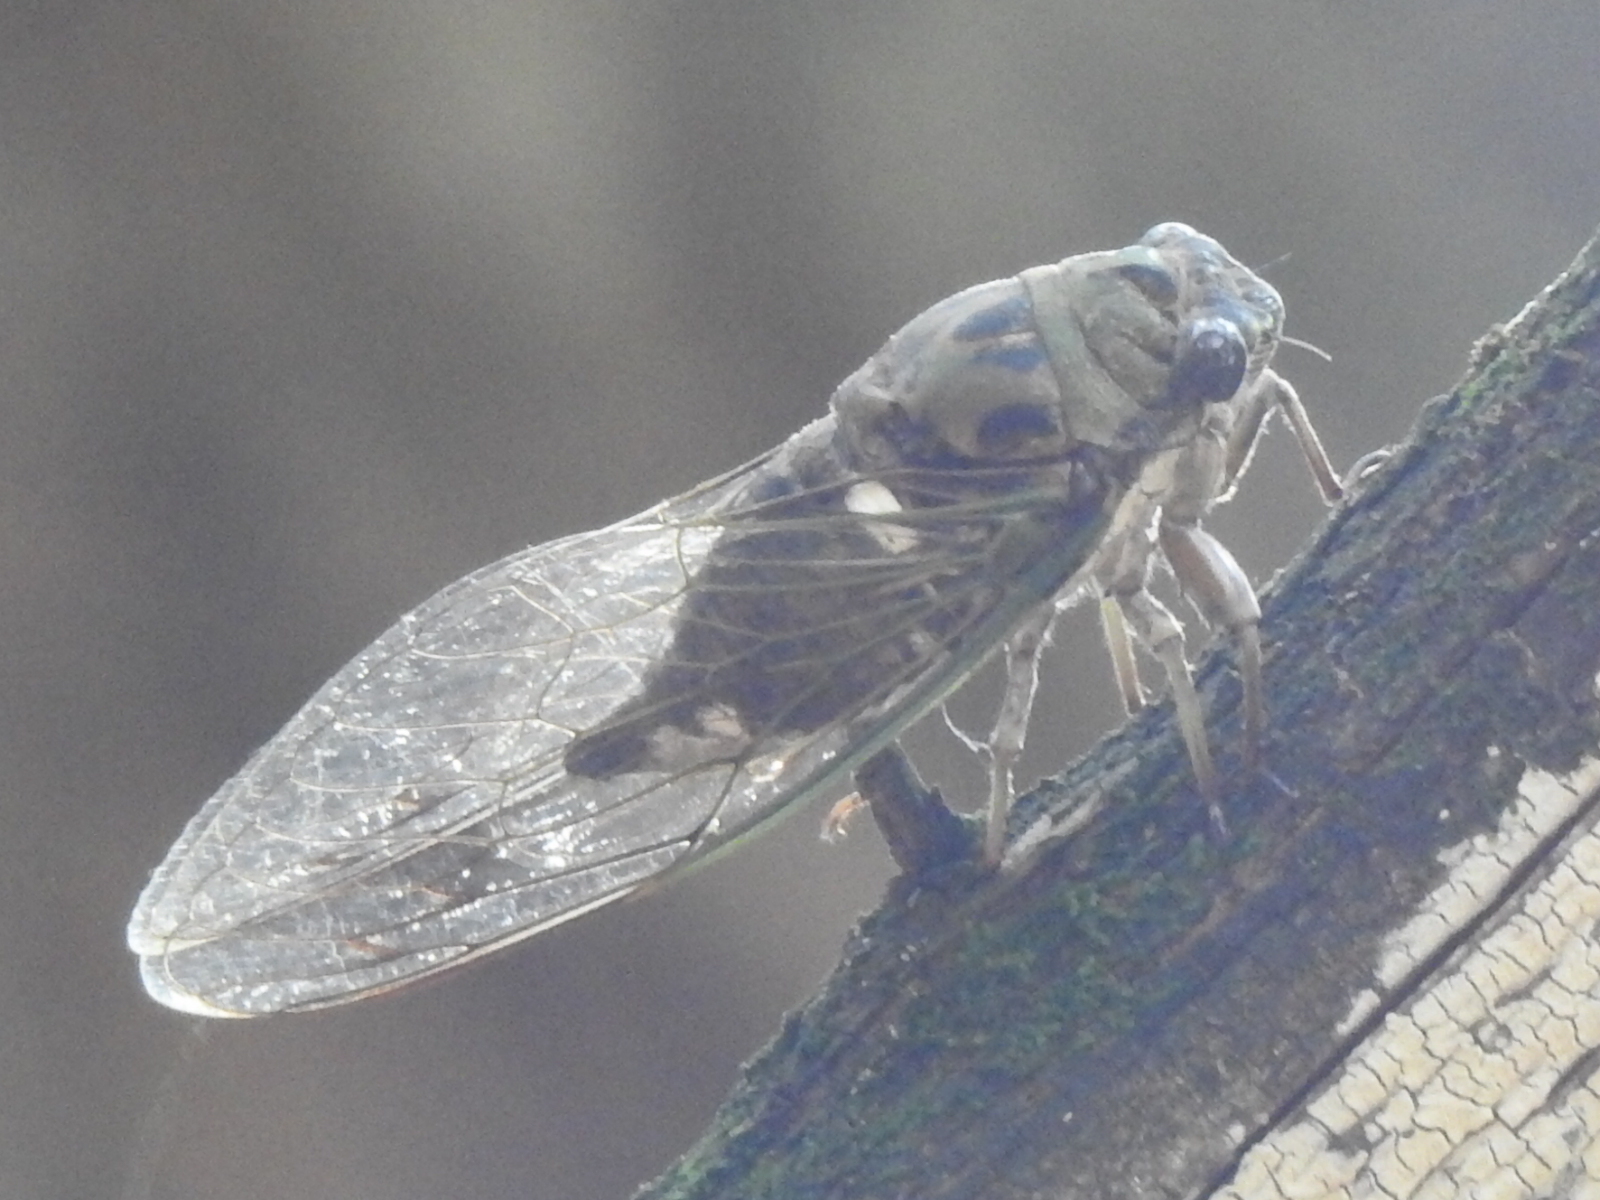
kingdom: Animalia
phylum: Arthropoda
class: Insecta
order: Hemiptera
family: Cicadidae
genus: Neotibicen
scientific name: Neotibicen pruinosus
